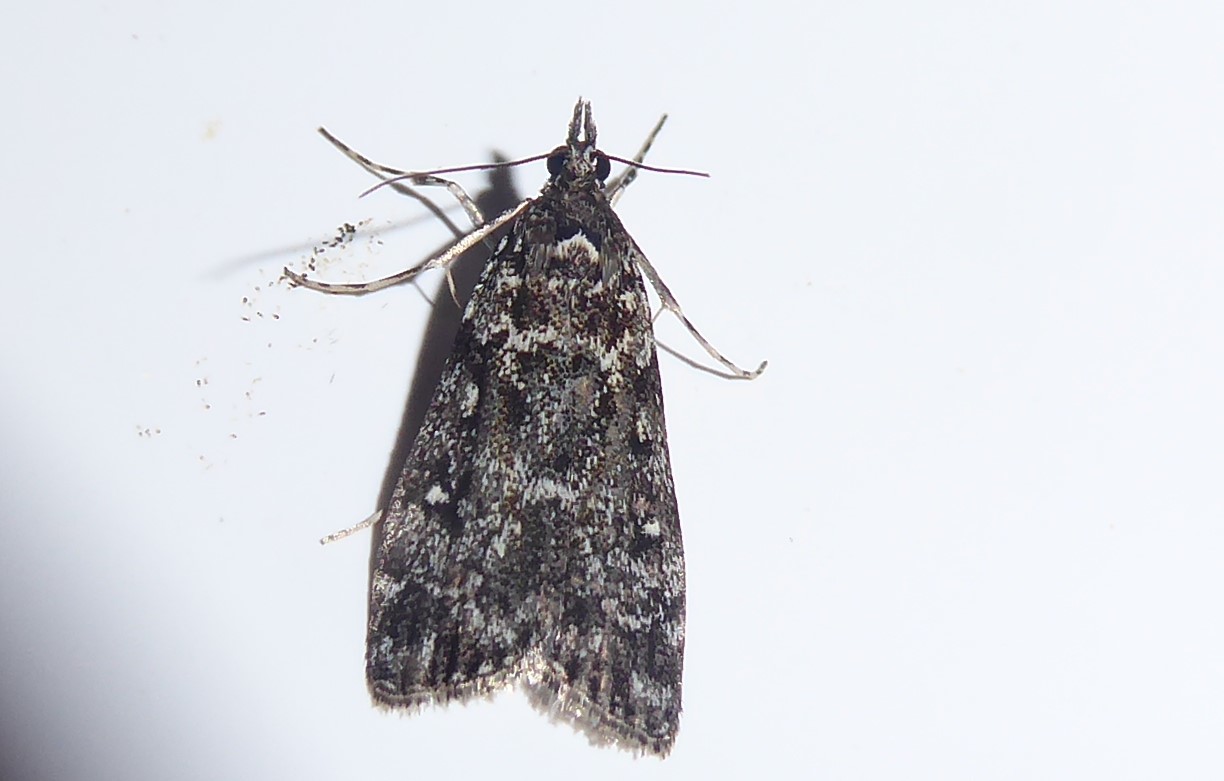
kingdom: Animalia
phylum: Arthropoda
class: Insecta
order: Lepidoptera
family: Crambidae
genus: Eudonia
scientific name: Eudonia philerga
